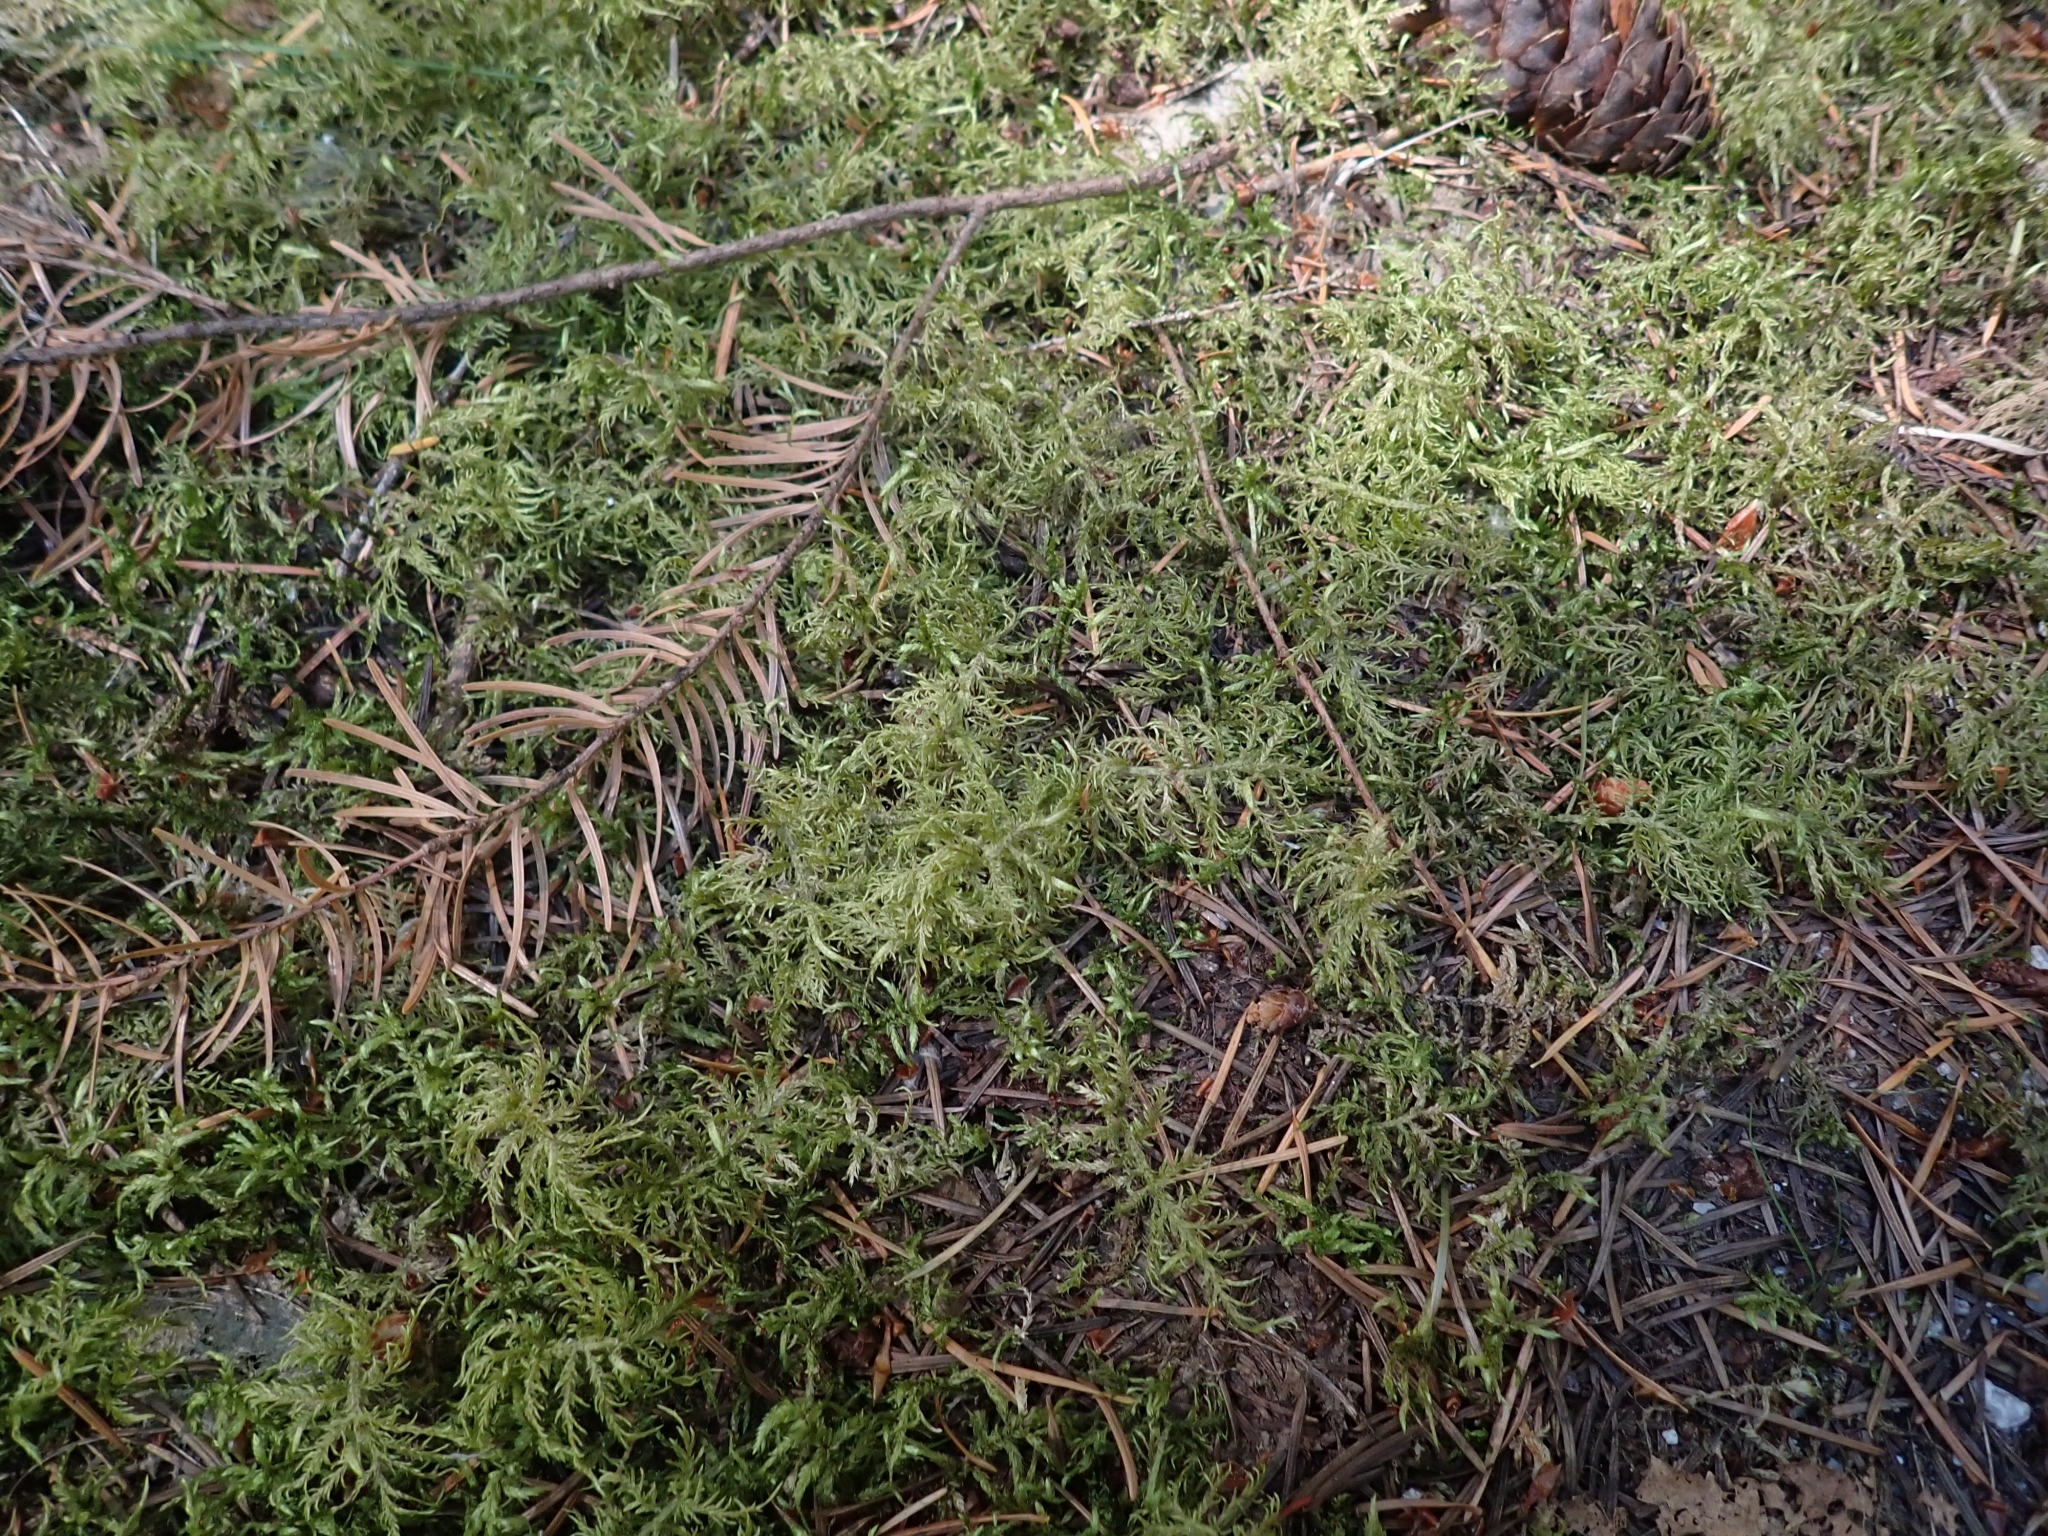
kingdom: Plantae
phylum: Bryophyta
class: Bryopsida
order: Hypnales
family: Hylocomiaceae
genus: Hylocomium
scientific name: Hylocomium splendens
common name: Stairstep moss
